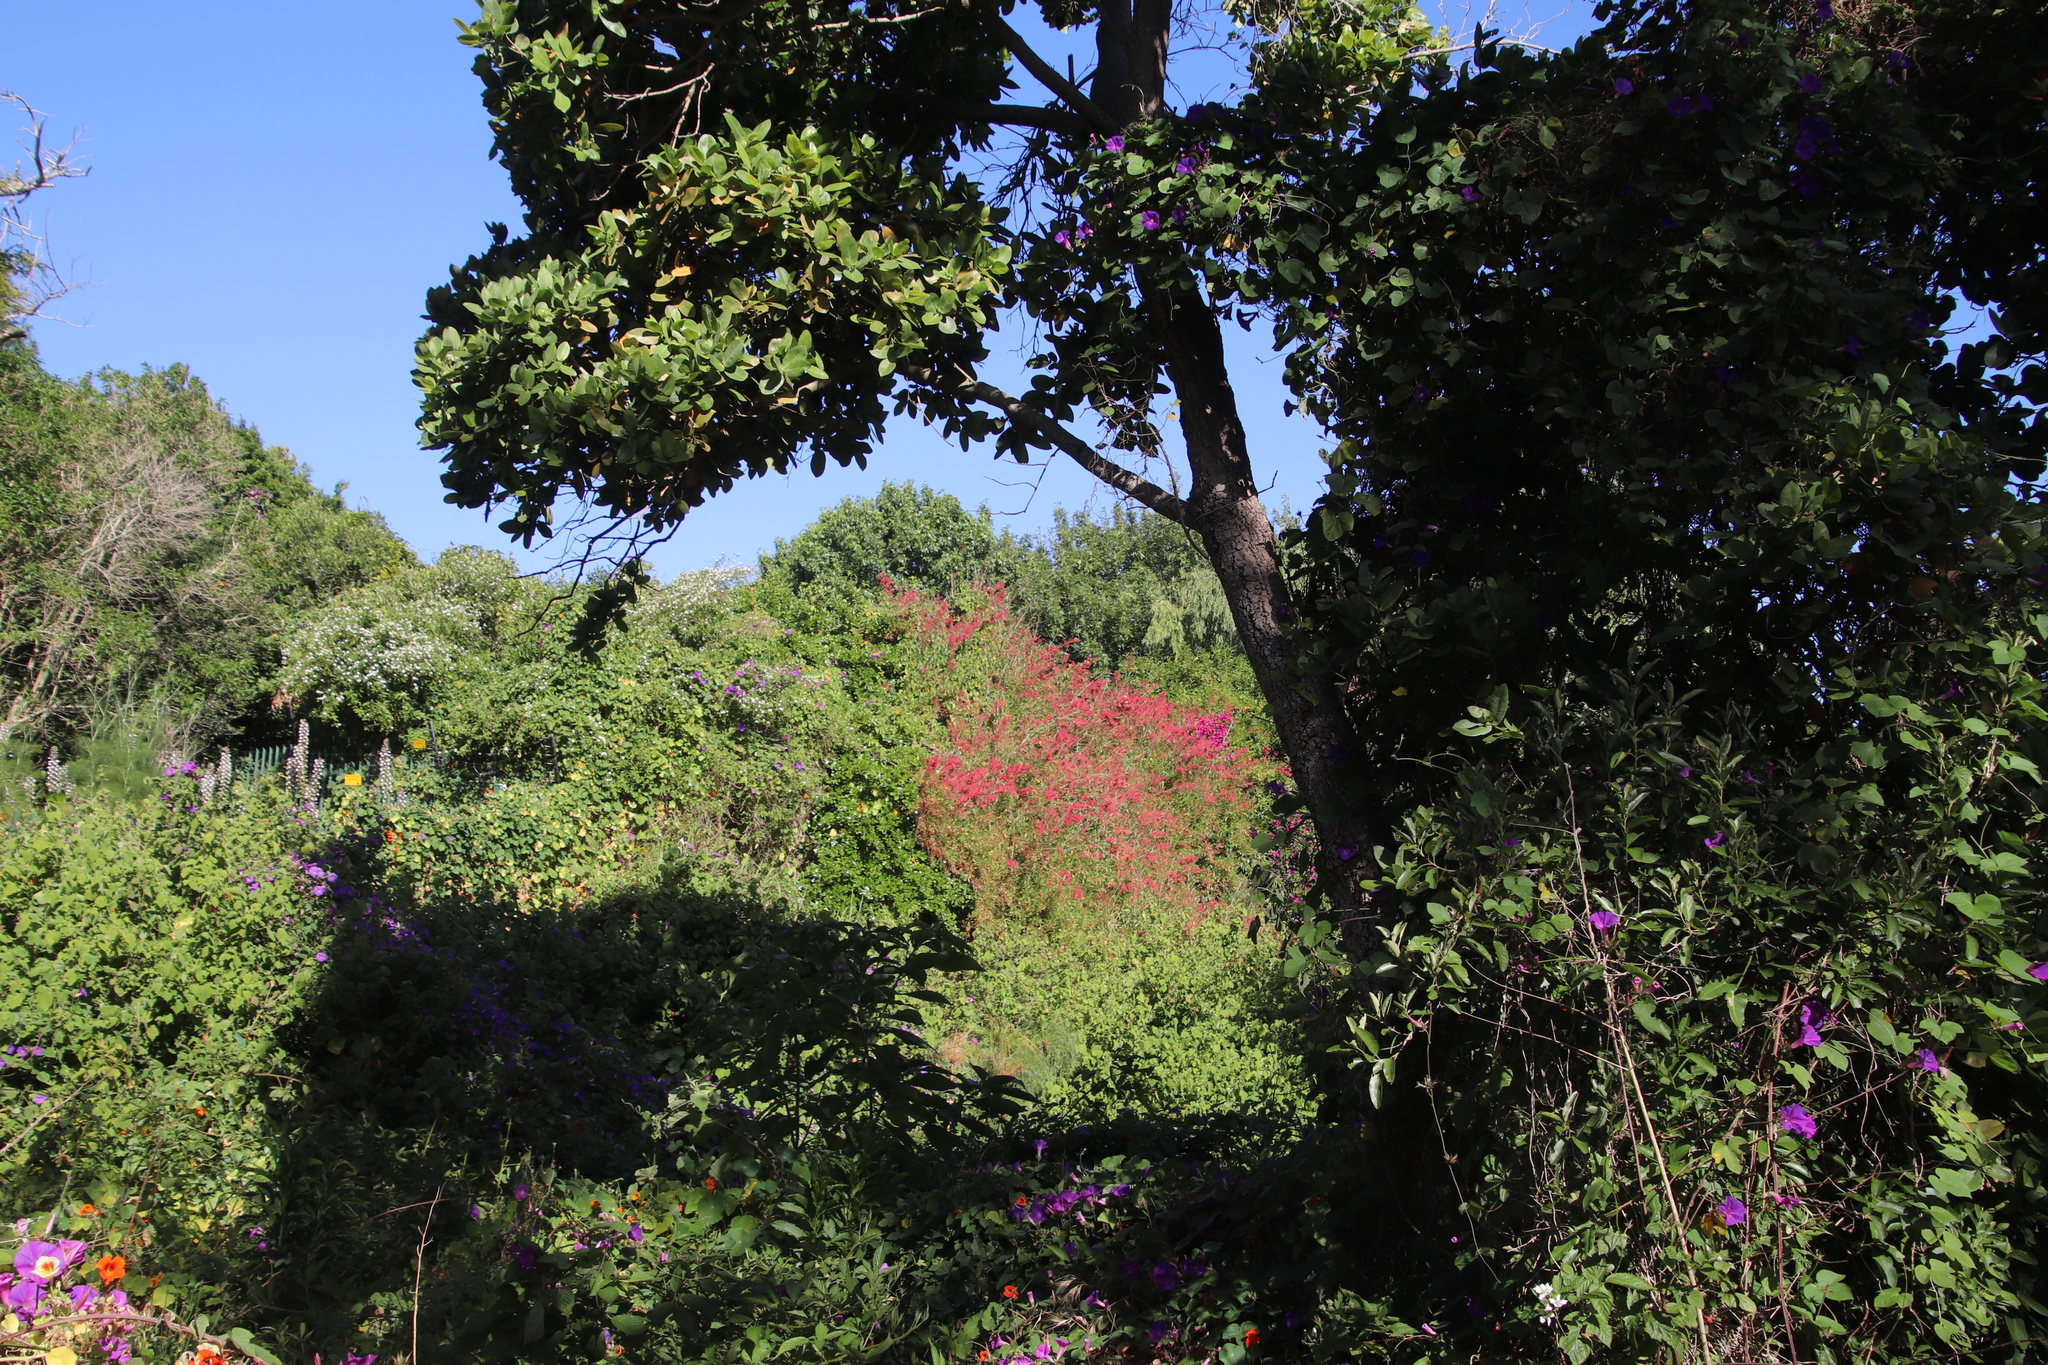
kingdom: Plantae
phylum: Tracheophyta
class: Magnoliopsida
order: Caryophyllales
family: Polygonaceae
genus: Rumex
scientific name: Rumex usambarensis
